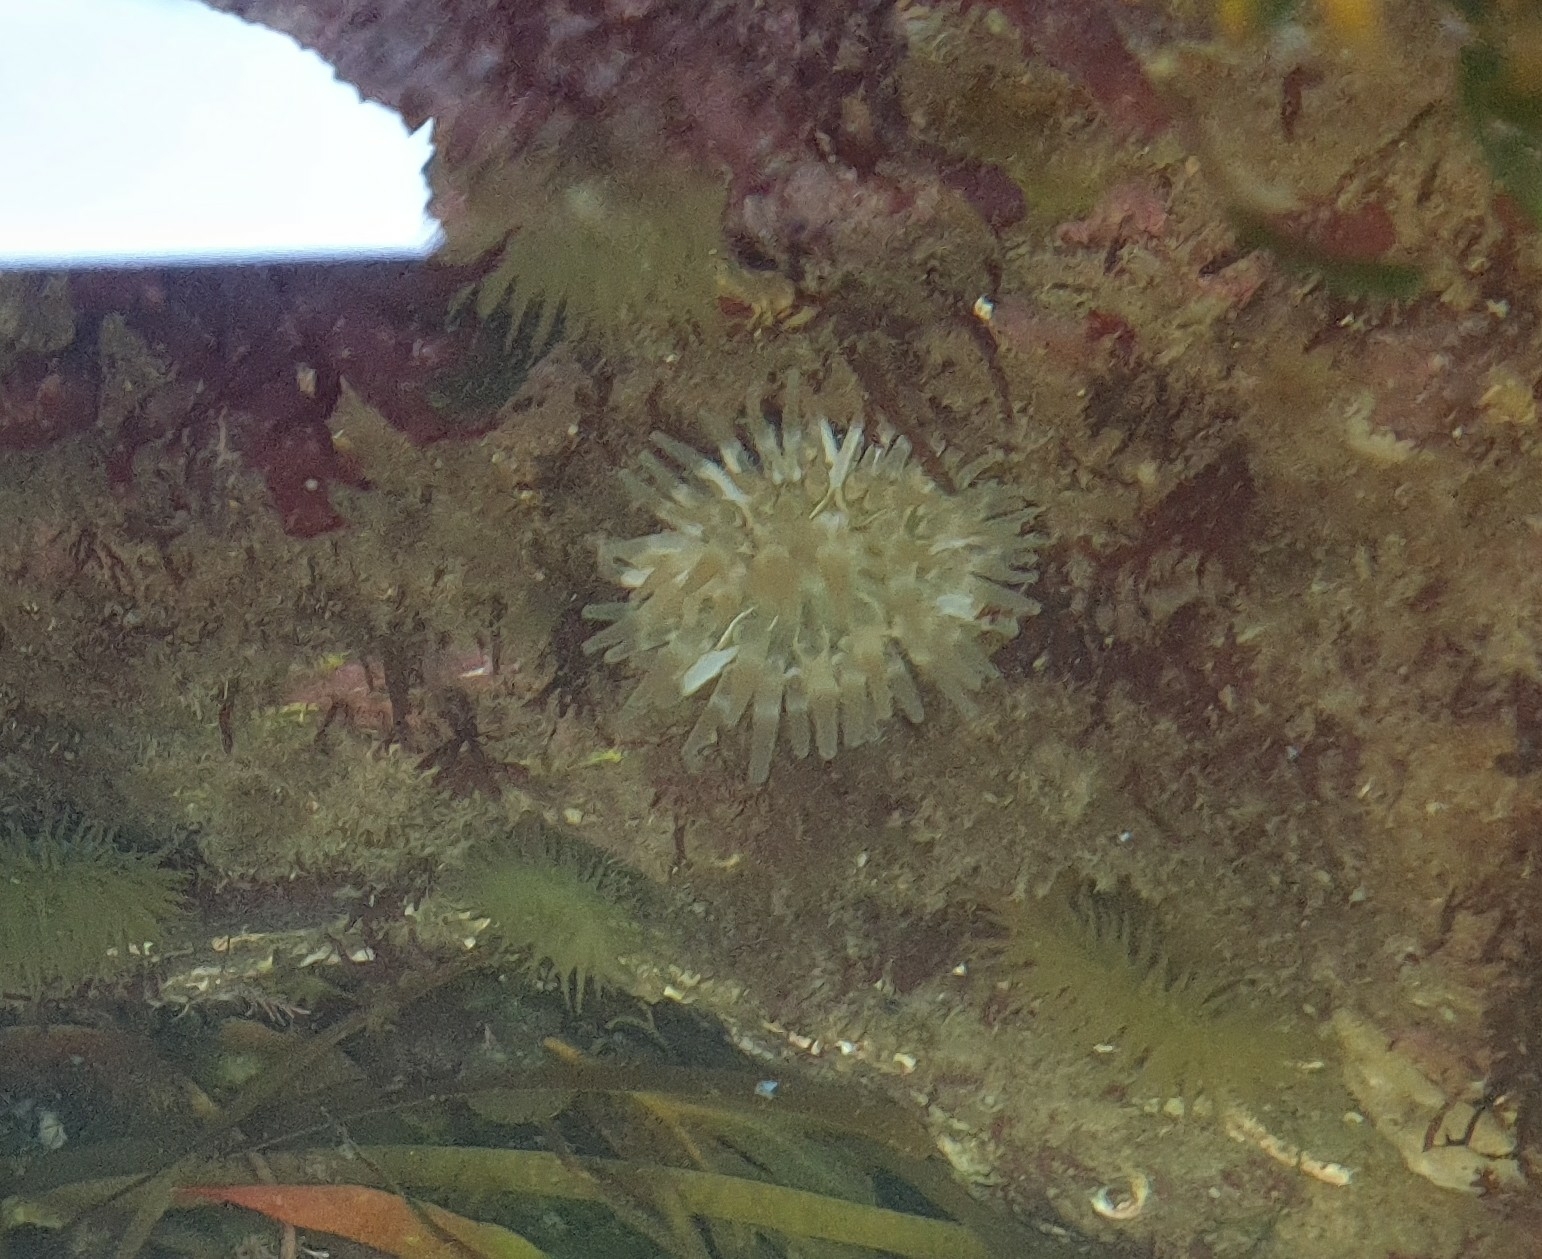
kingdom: Animalia
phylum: Cnidaria
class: Anthozoa
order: Actiniaria
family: Actiniidae
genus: Urticina
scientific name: Urticina felina
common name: Dahlia anemone
